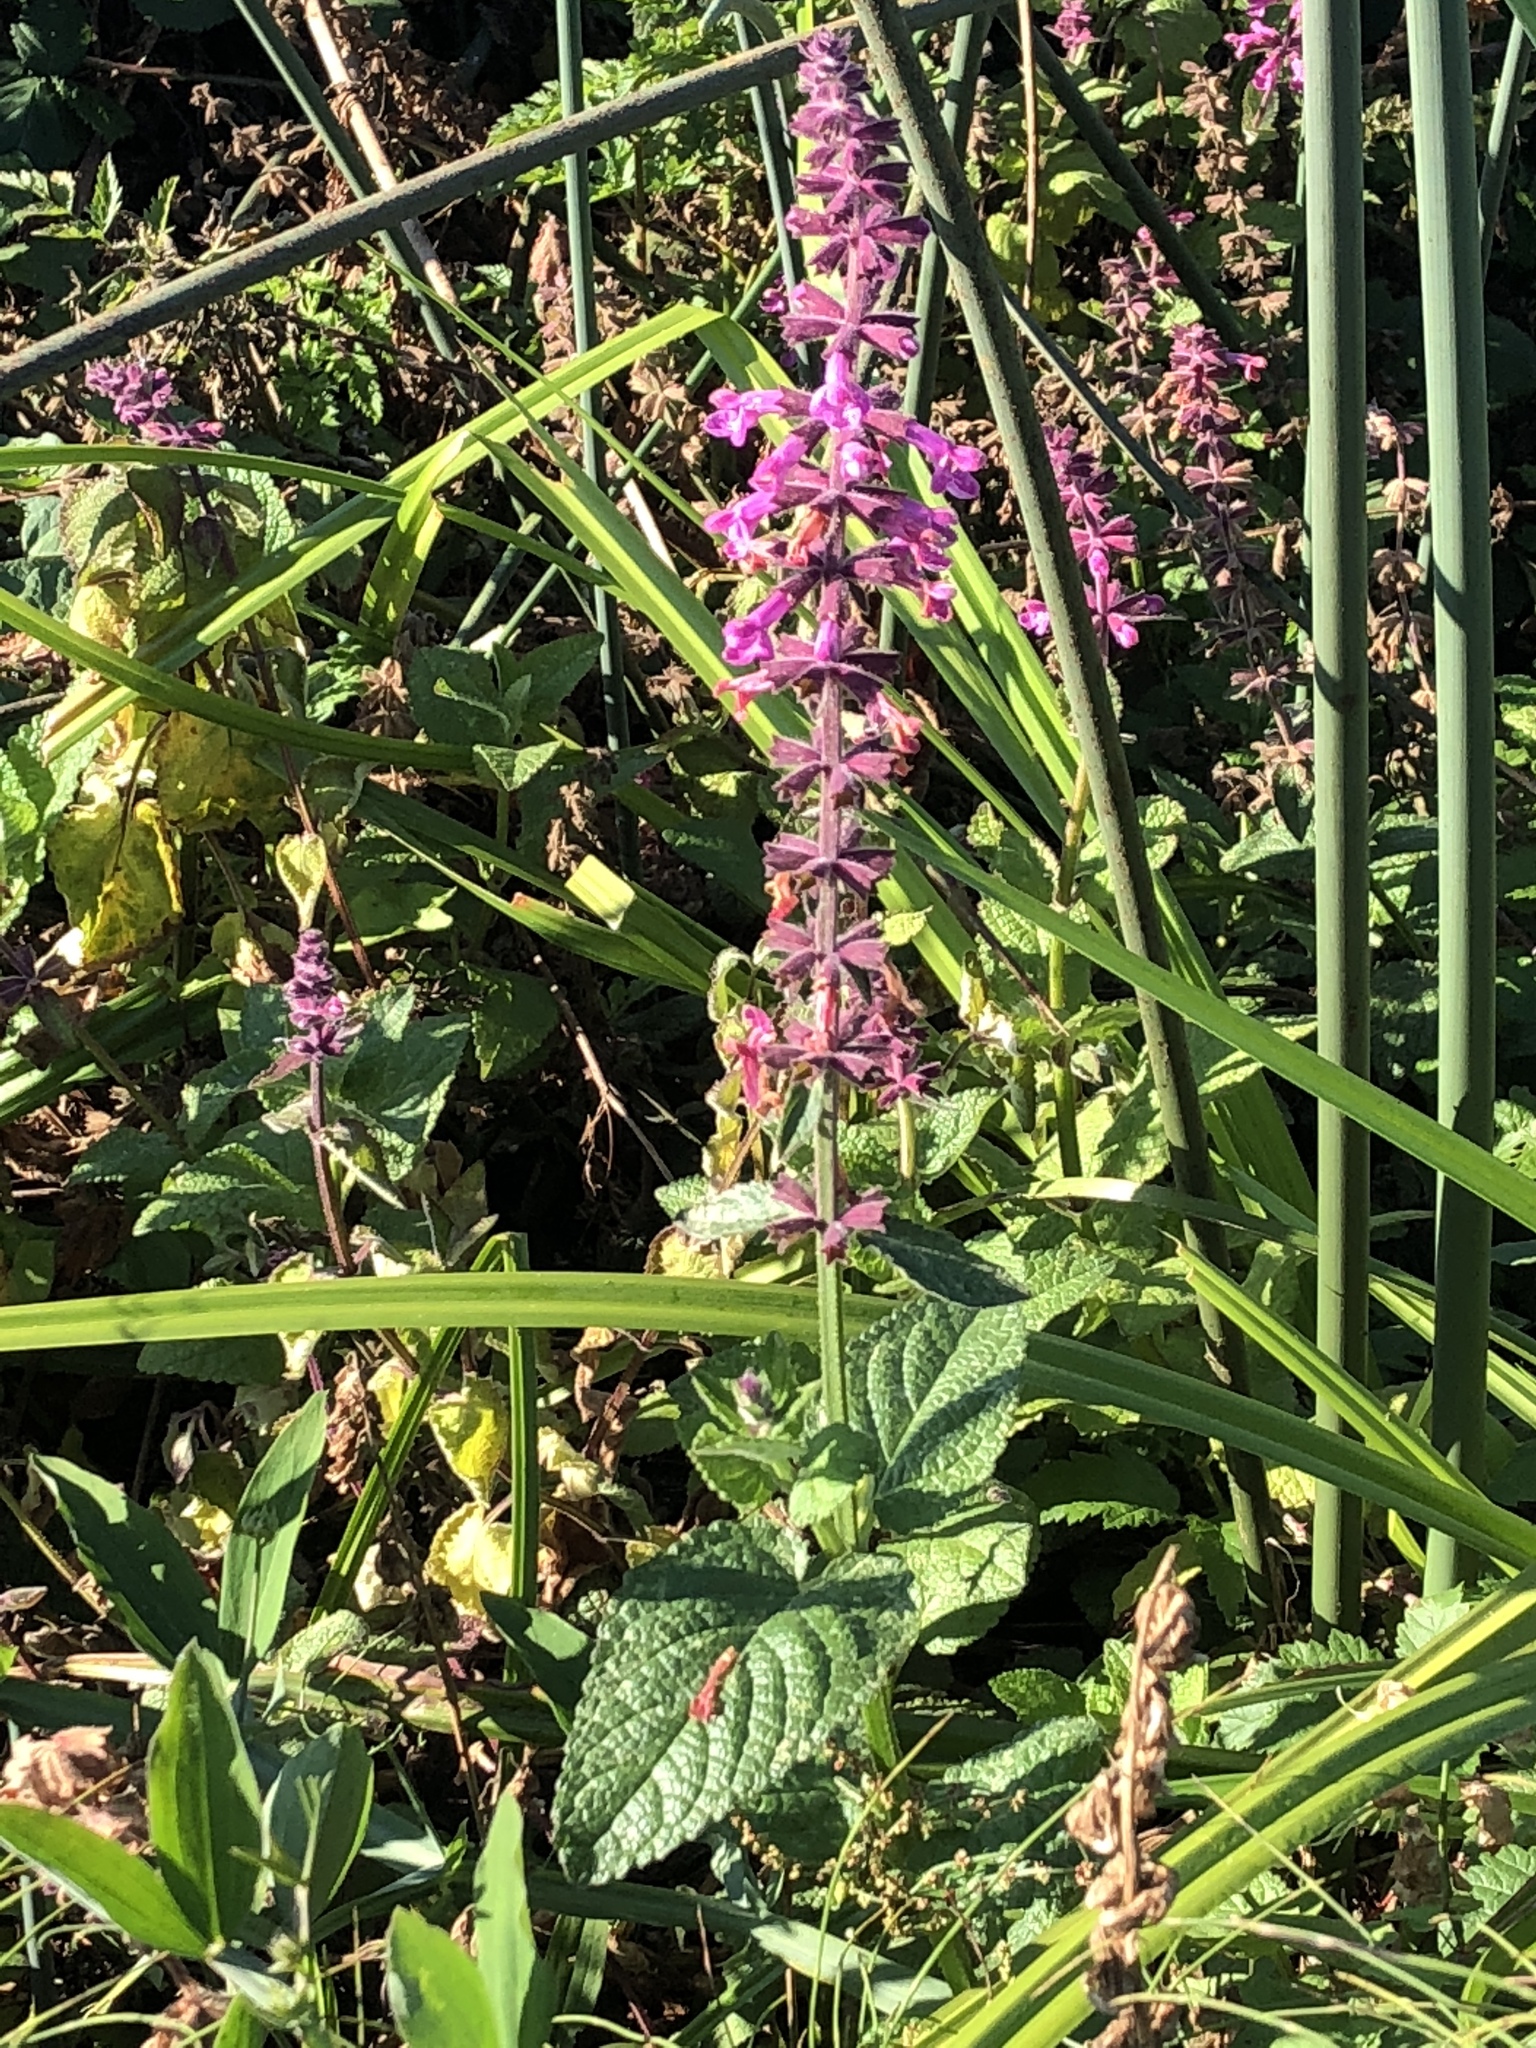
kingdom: Plantae
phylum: Tracheophyta
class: Magnoliopsida
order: Lamiales
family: Lamiaceae
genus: Stachys
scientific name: Stachys chamissonis
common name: Coastal hedge-nettle
